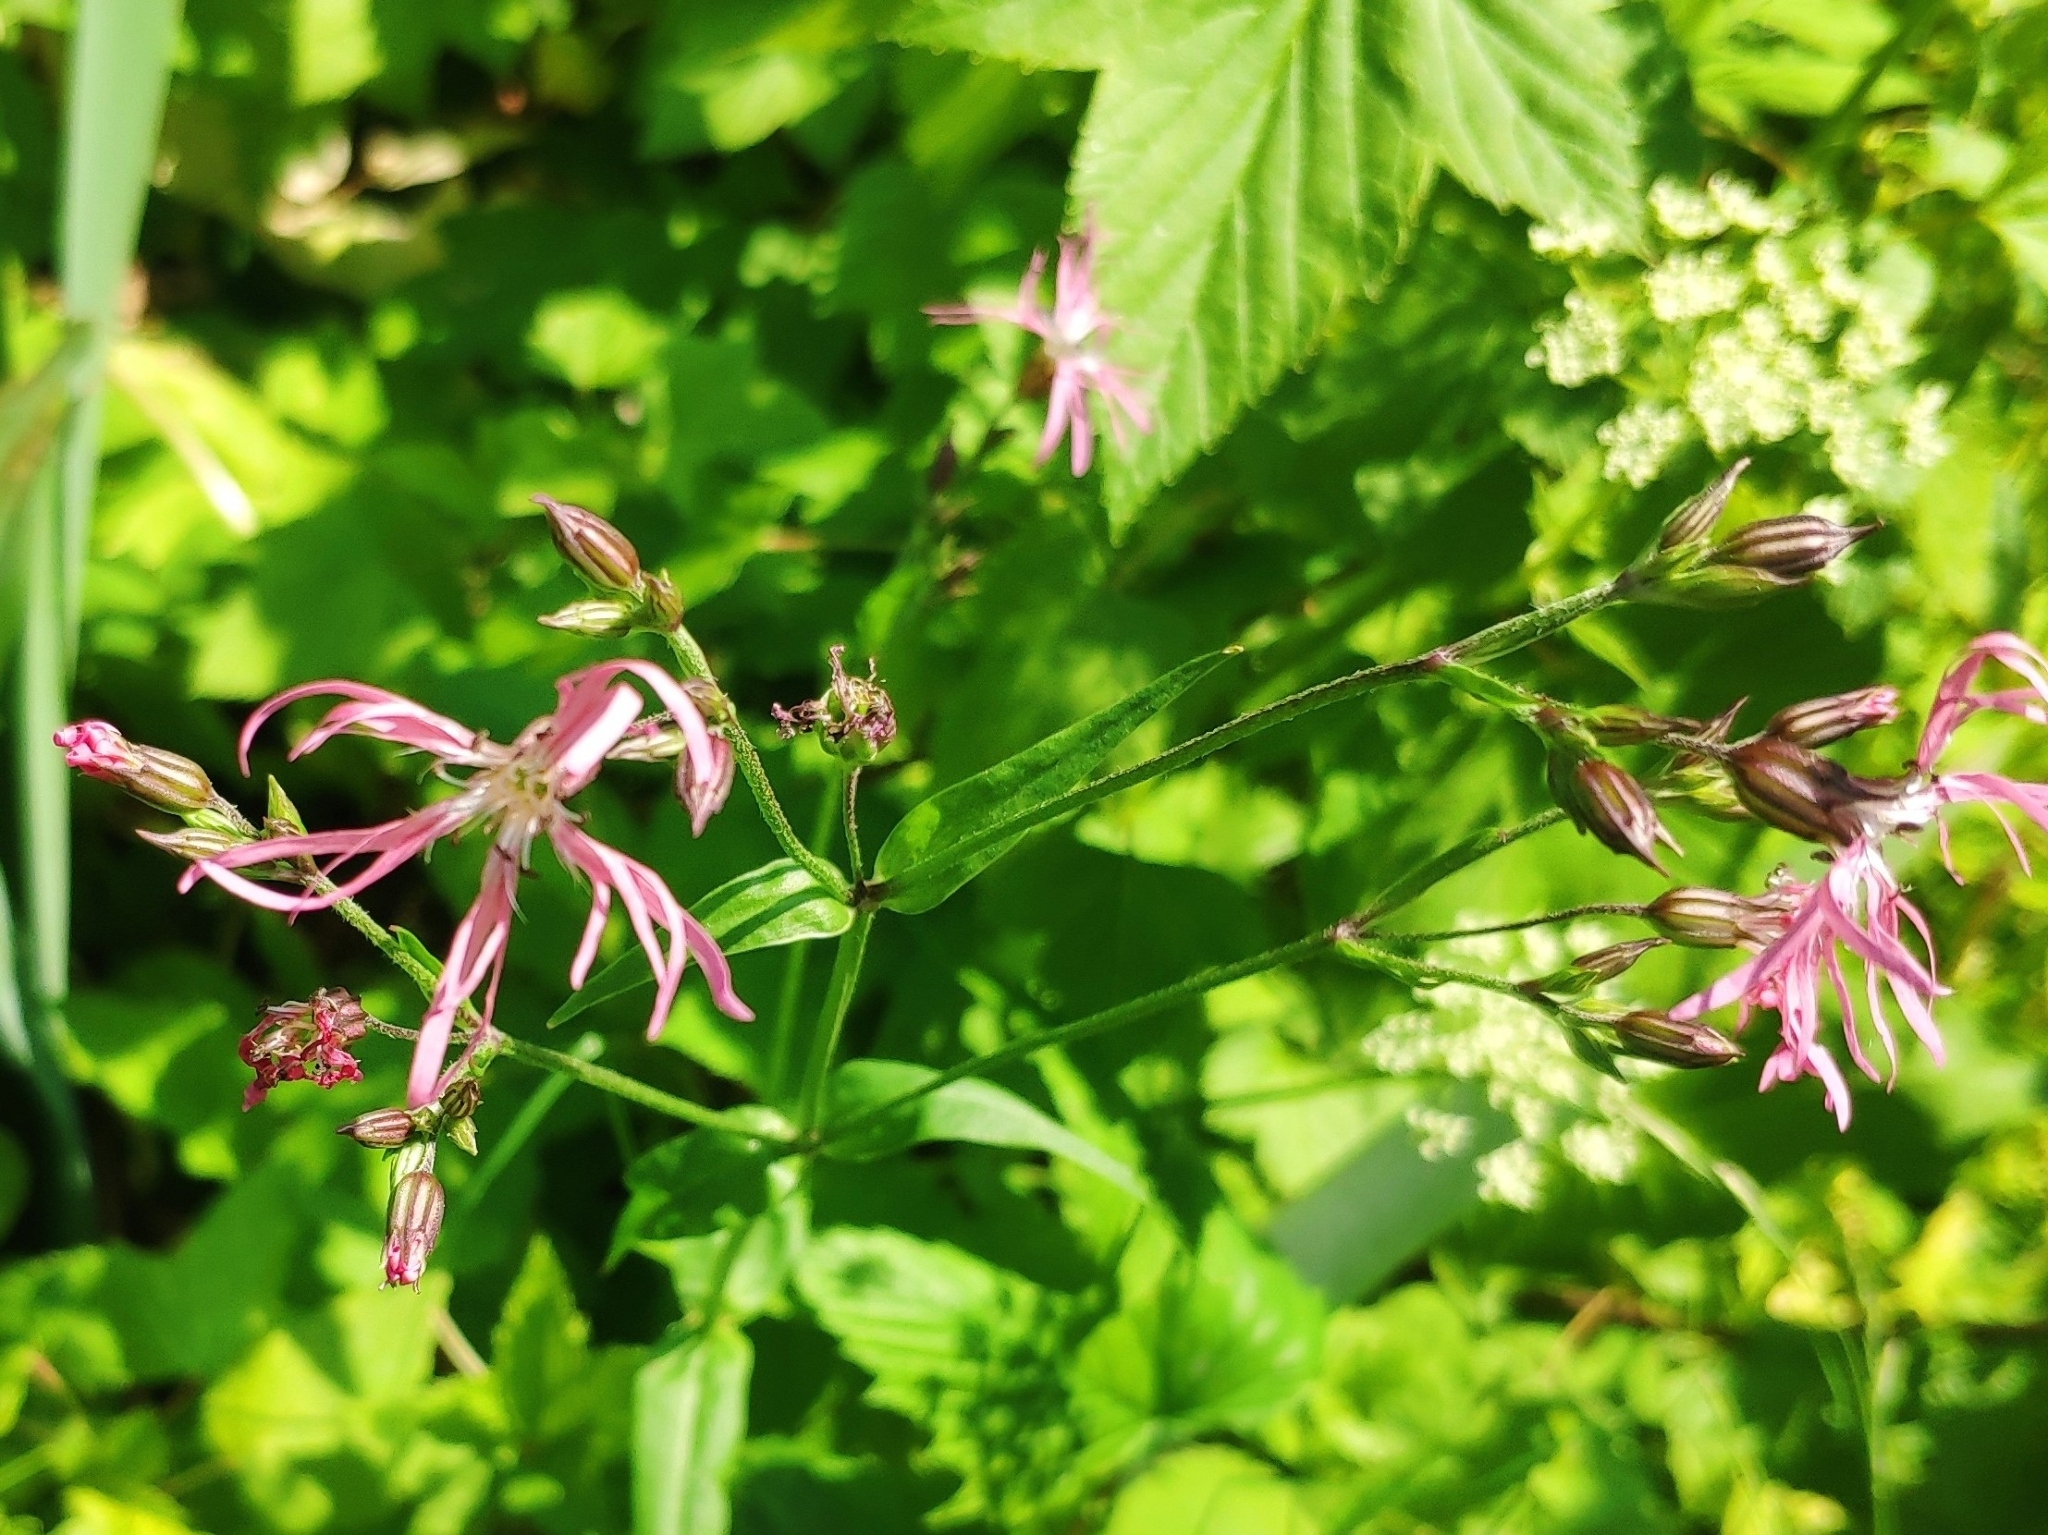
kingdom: Plantae
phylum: Tracheophyta
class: Magnoliopsida
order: Caryophyllales
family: Caryophyllaceae
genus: Silene
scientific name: Silene flos-cuculi
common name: Ragged-robin
